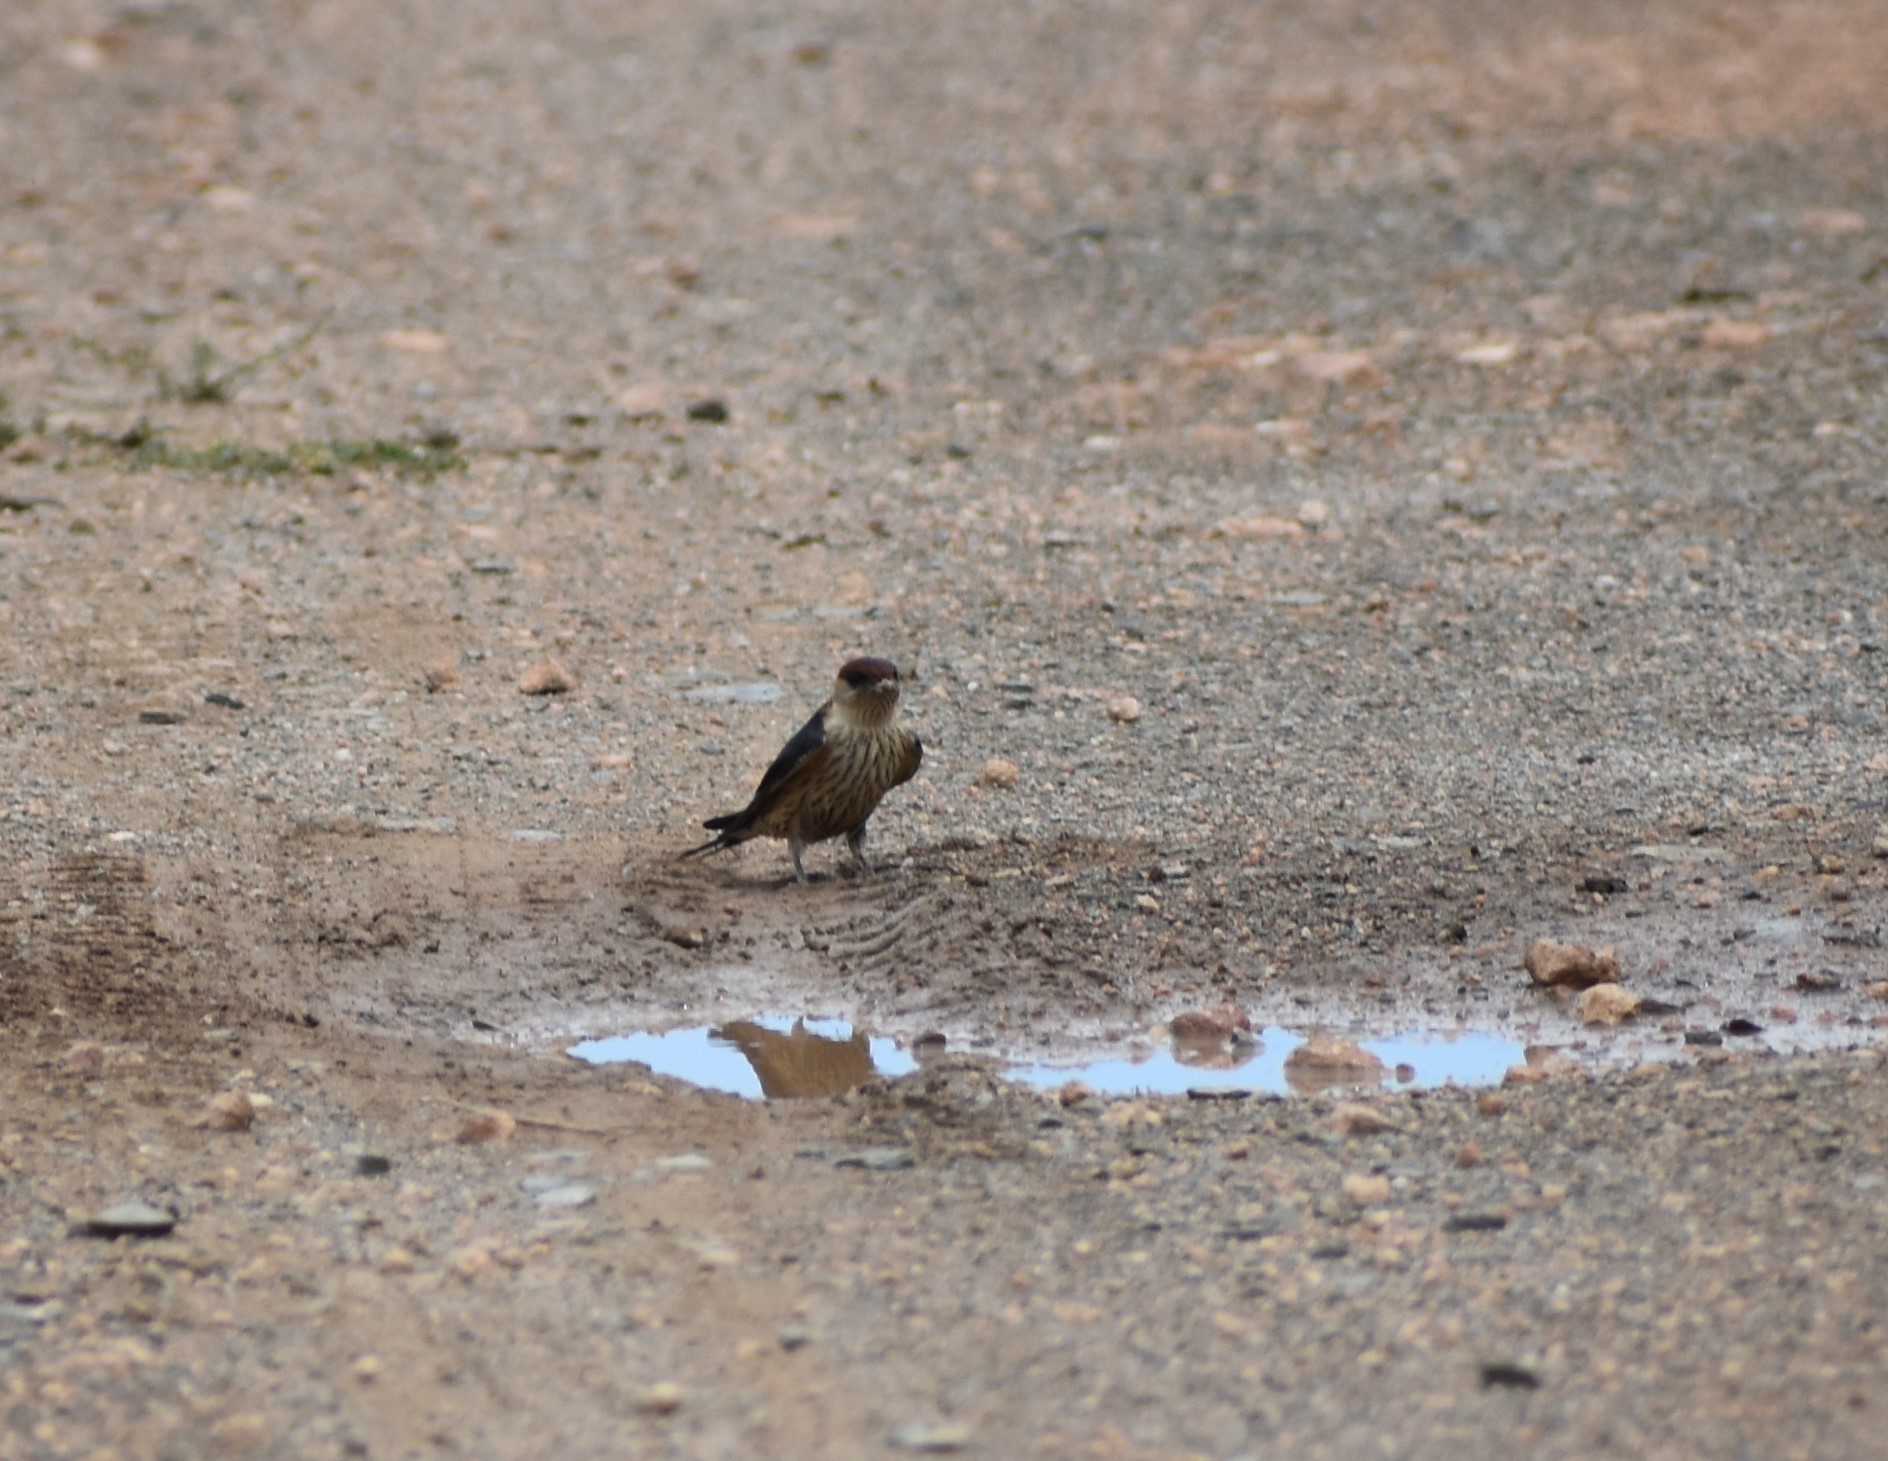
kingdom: Animalia
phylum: Chordata
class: Aves
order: Passeriformes
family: Hirundinidae
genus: Cecropis
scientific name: Cecropis cucullata
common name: Greater striped-swallow
